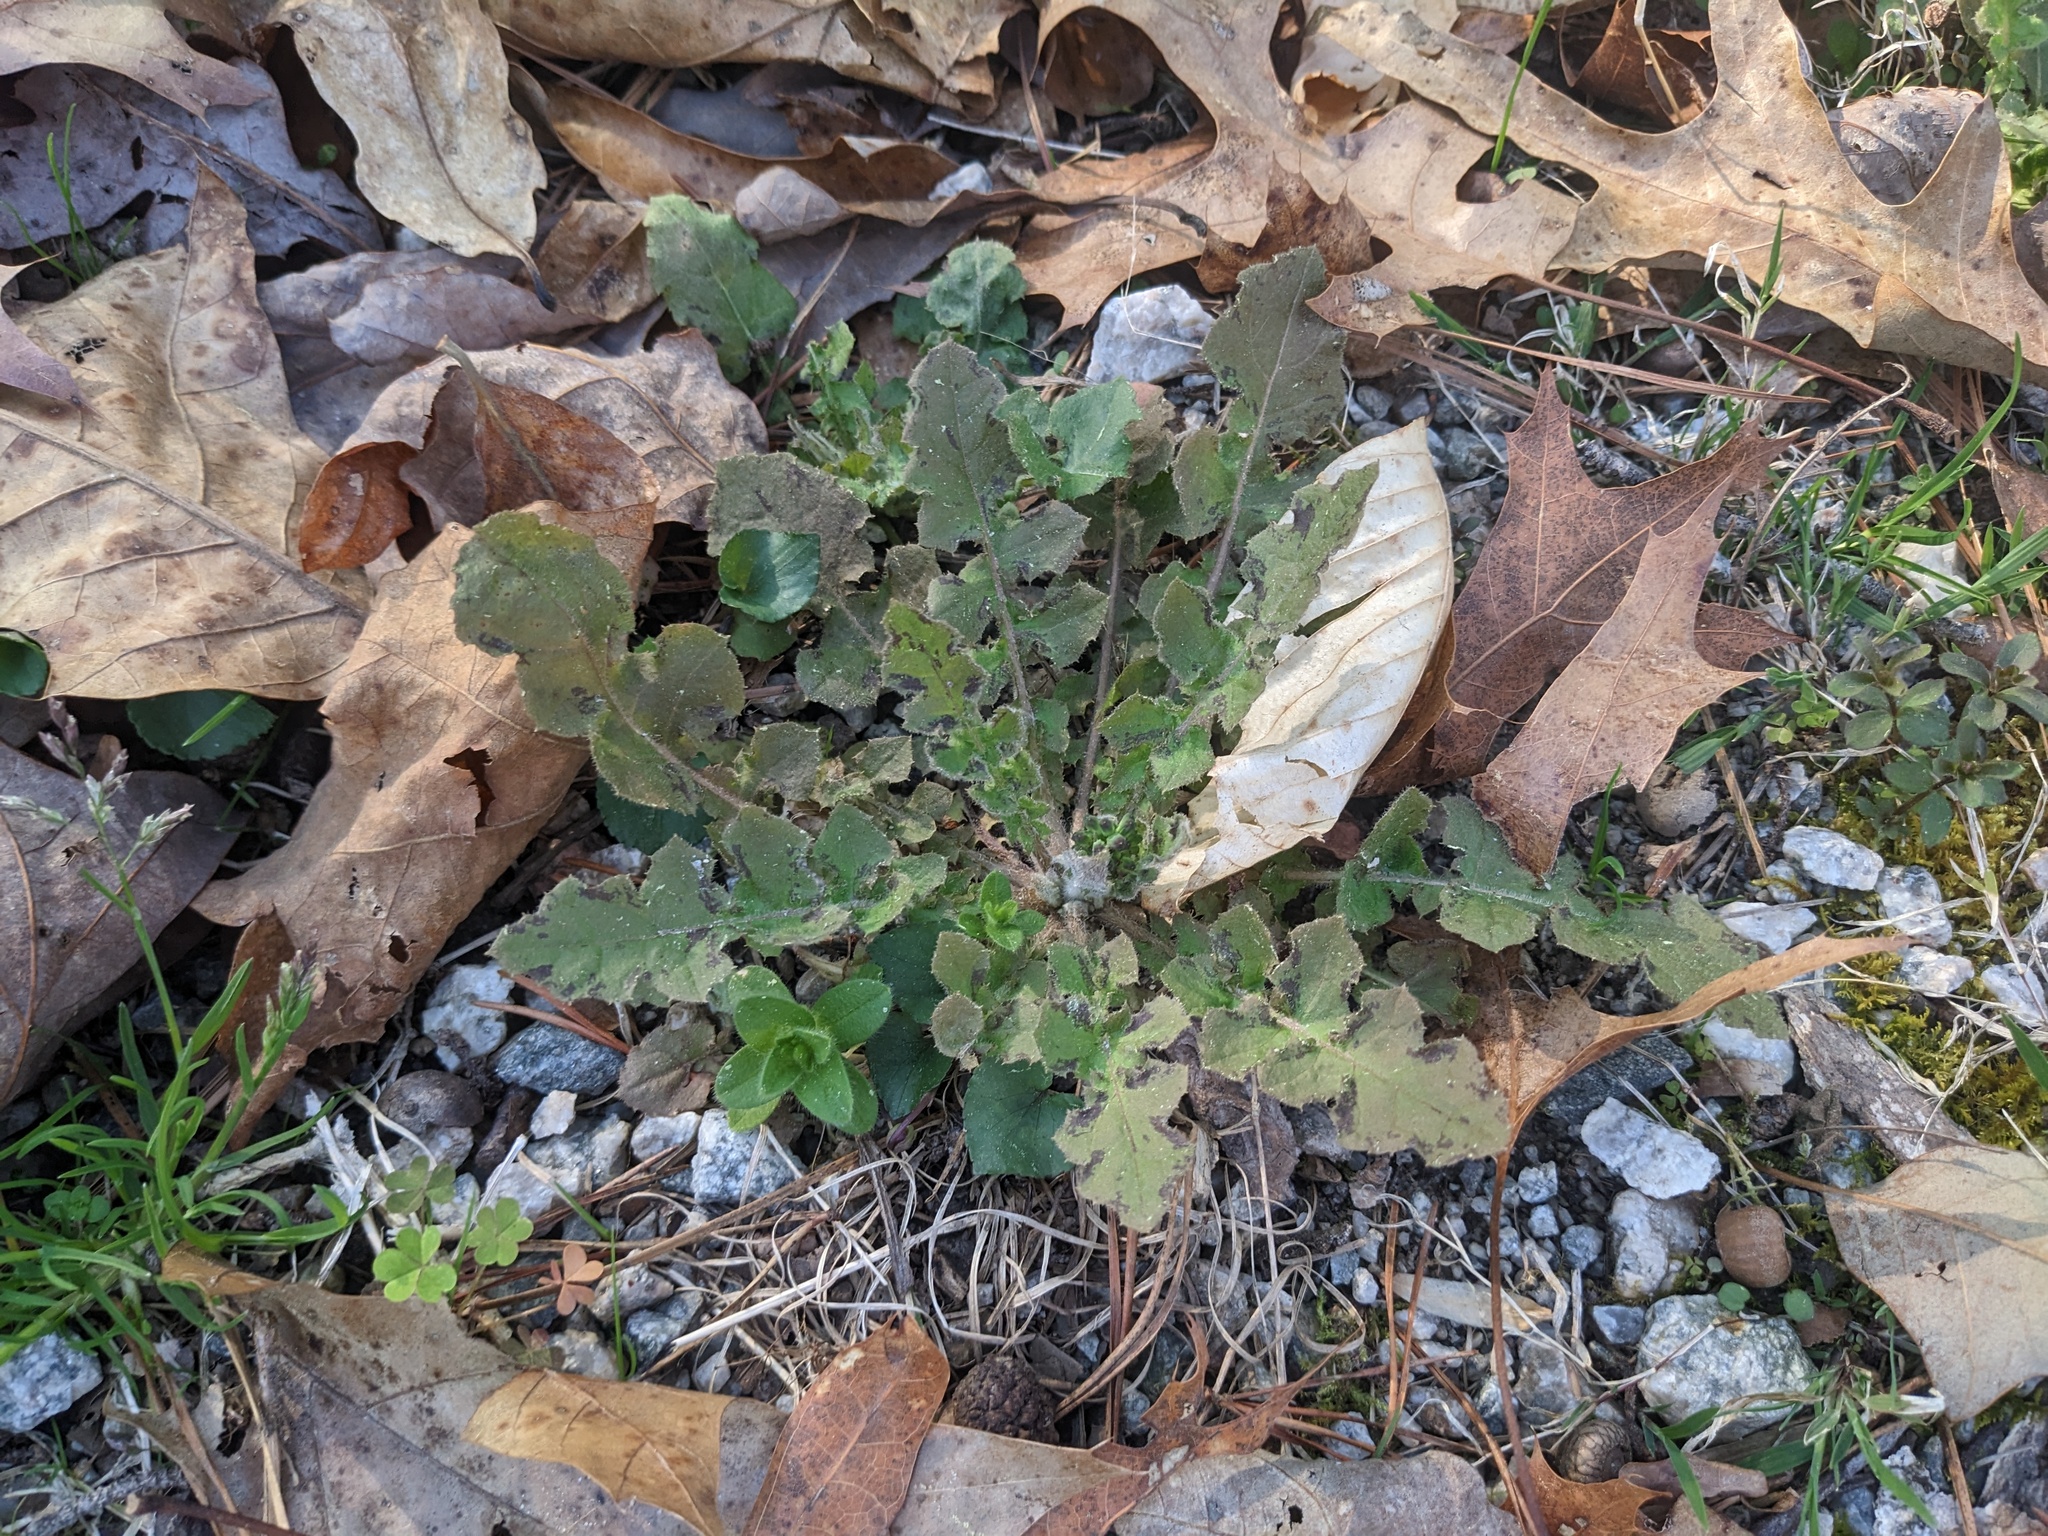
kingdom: Plantae
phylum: Tracheophyta
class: Magnoliopsida
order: Asterales
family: Asteraceae
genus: Youngia
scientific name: Youngia japonica
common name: Oriental false hawksbeard
